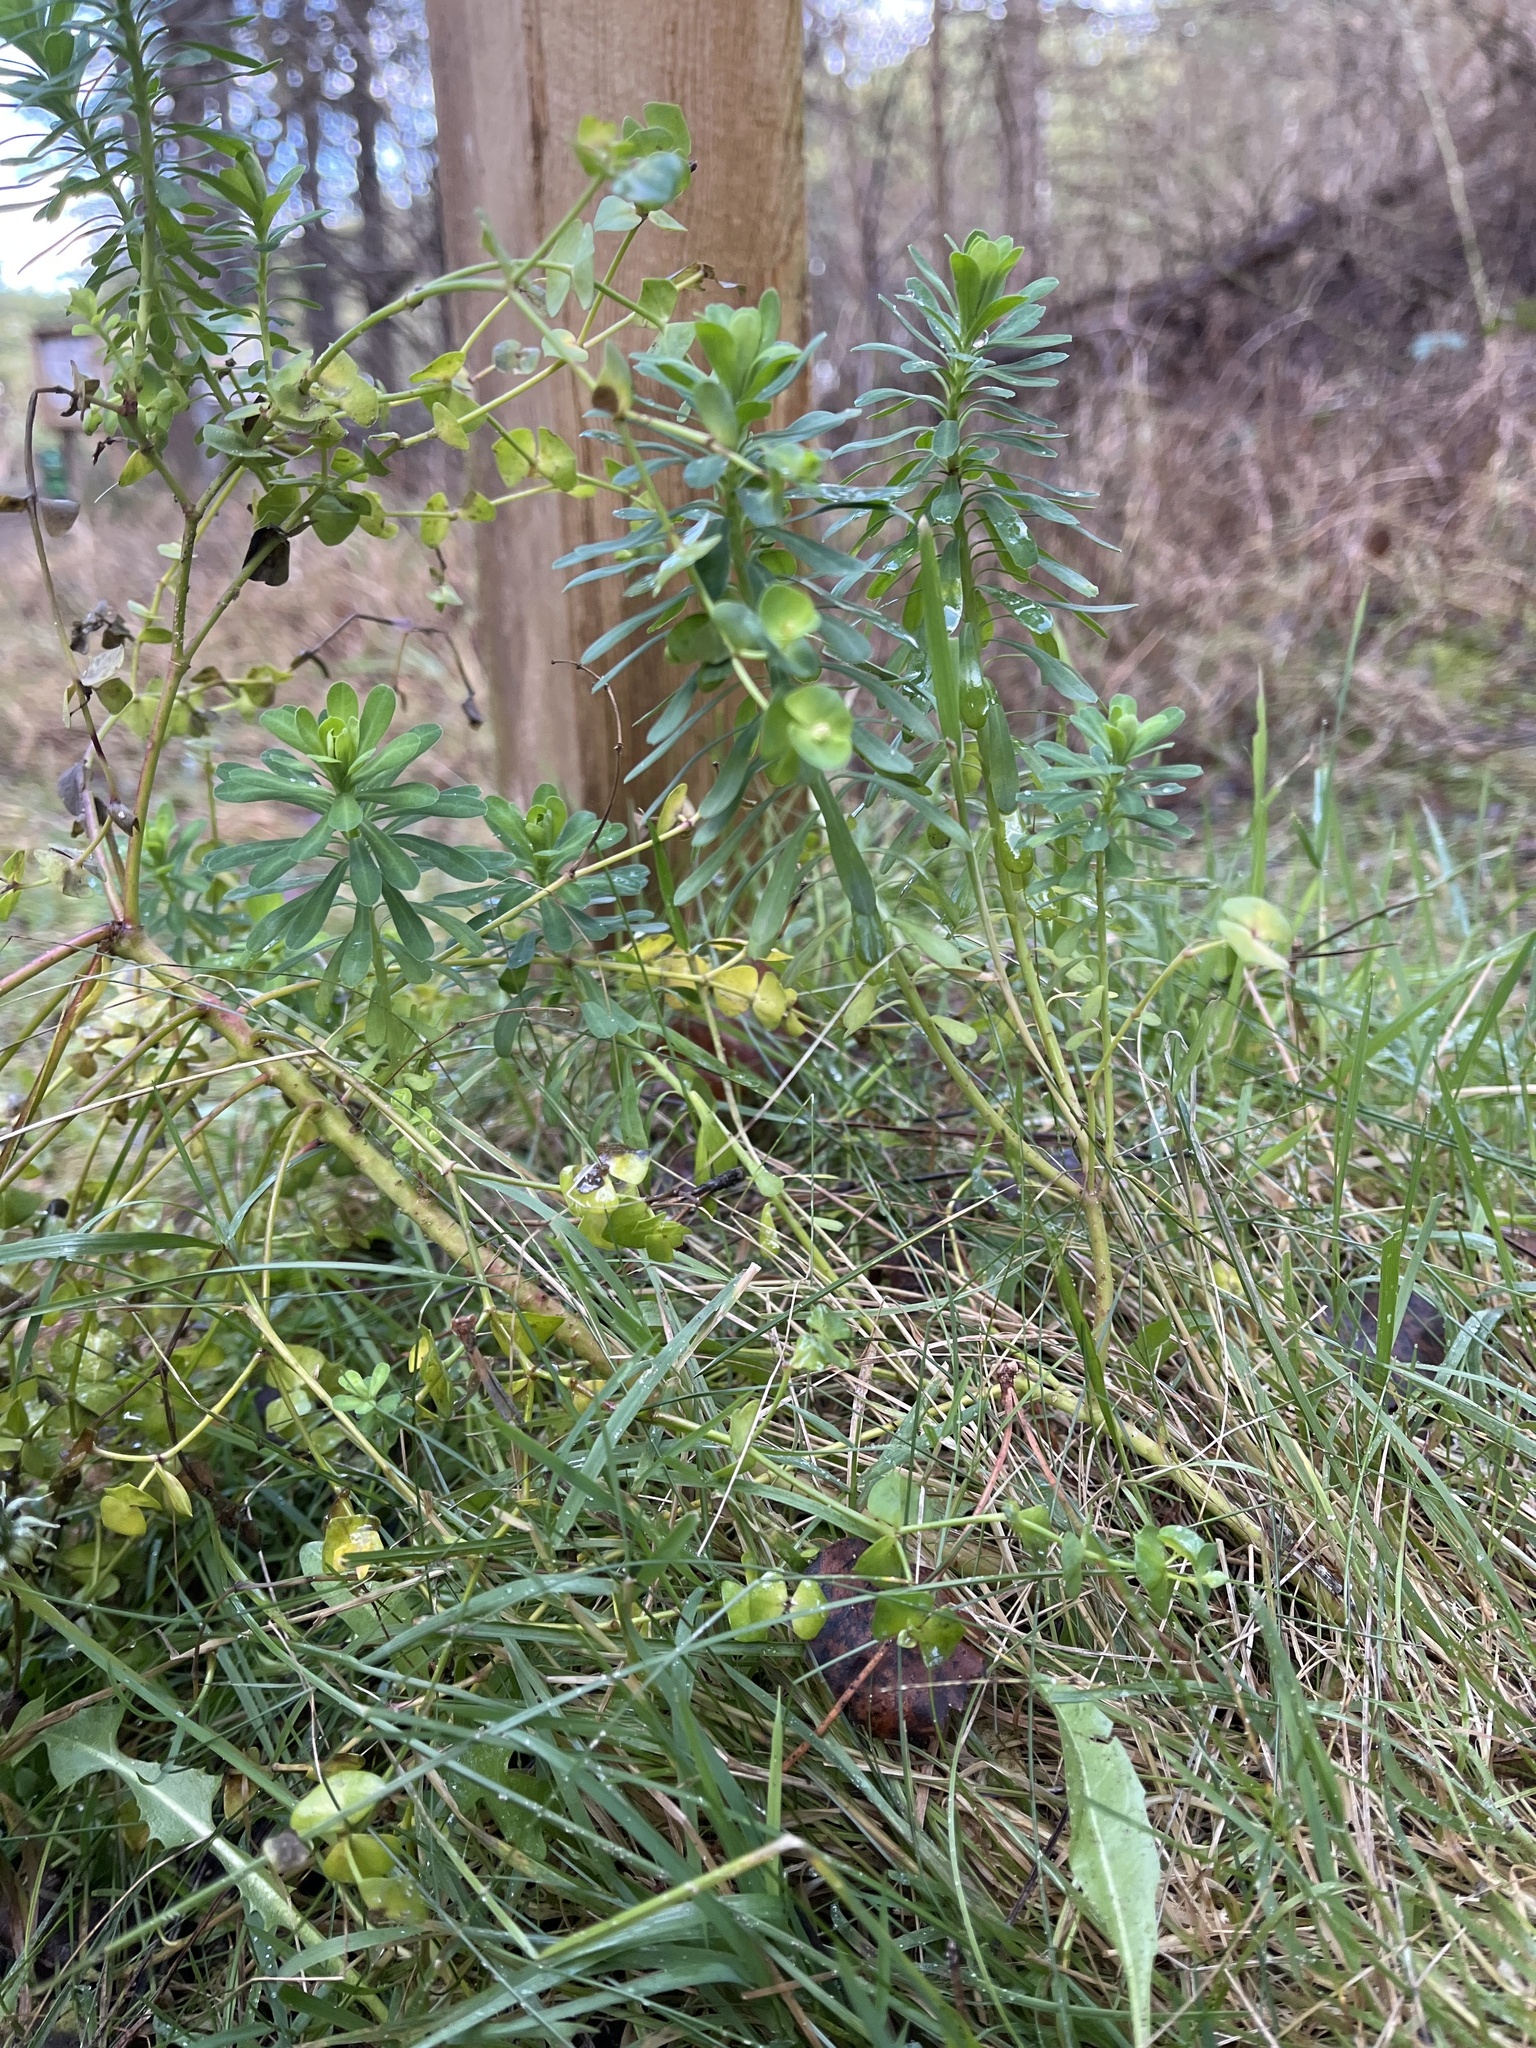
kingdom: Plantae
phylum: Tracheophyta
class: Magnoliopsida
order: Malpighiales
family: Euphorbiaceae
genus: Euphorbia
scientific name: Euphorbia portlandica
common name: Portland spurge
